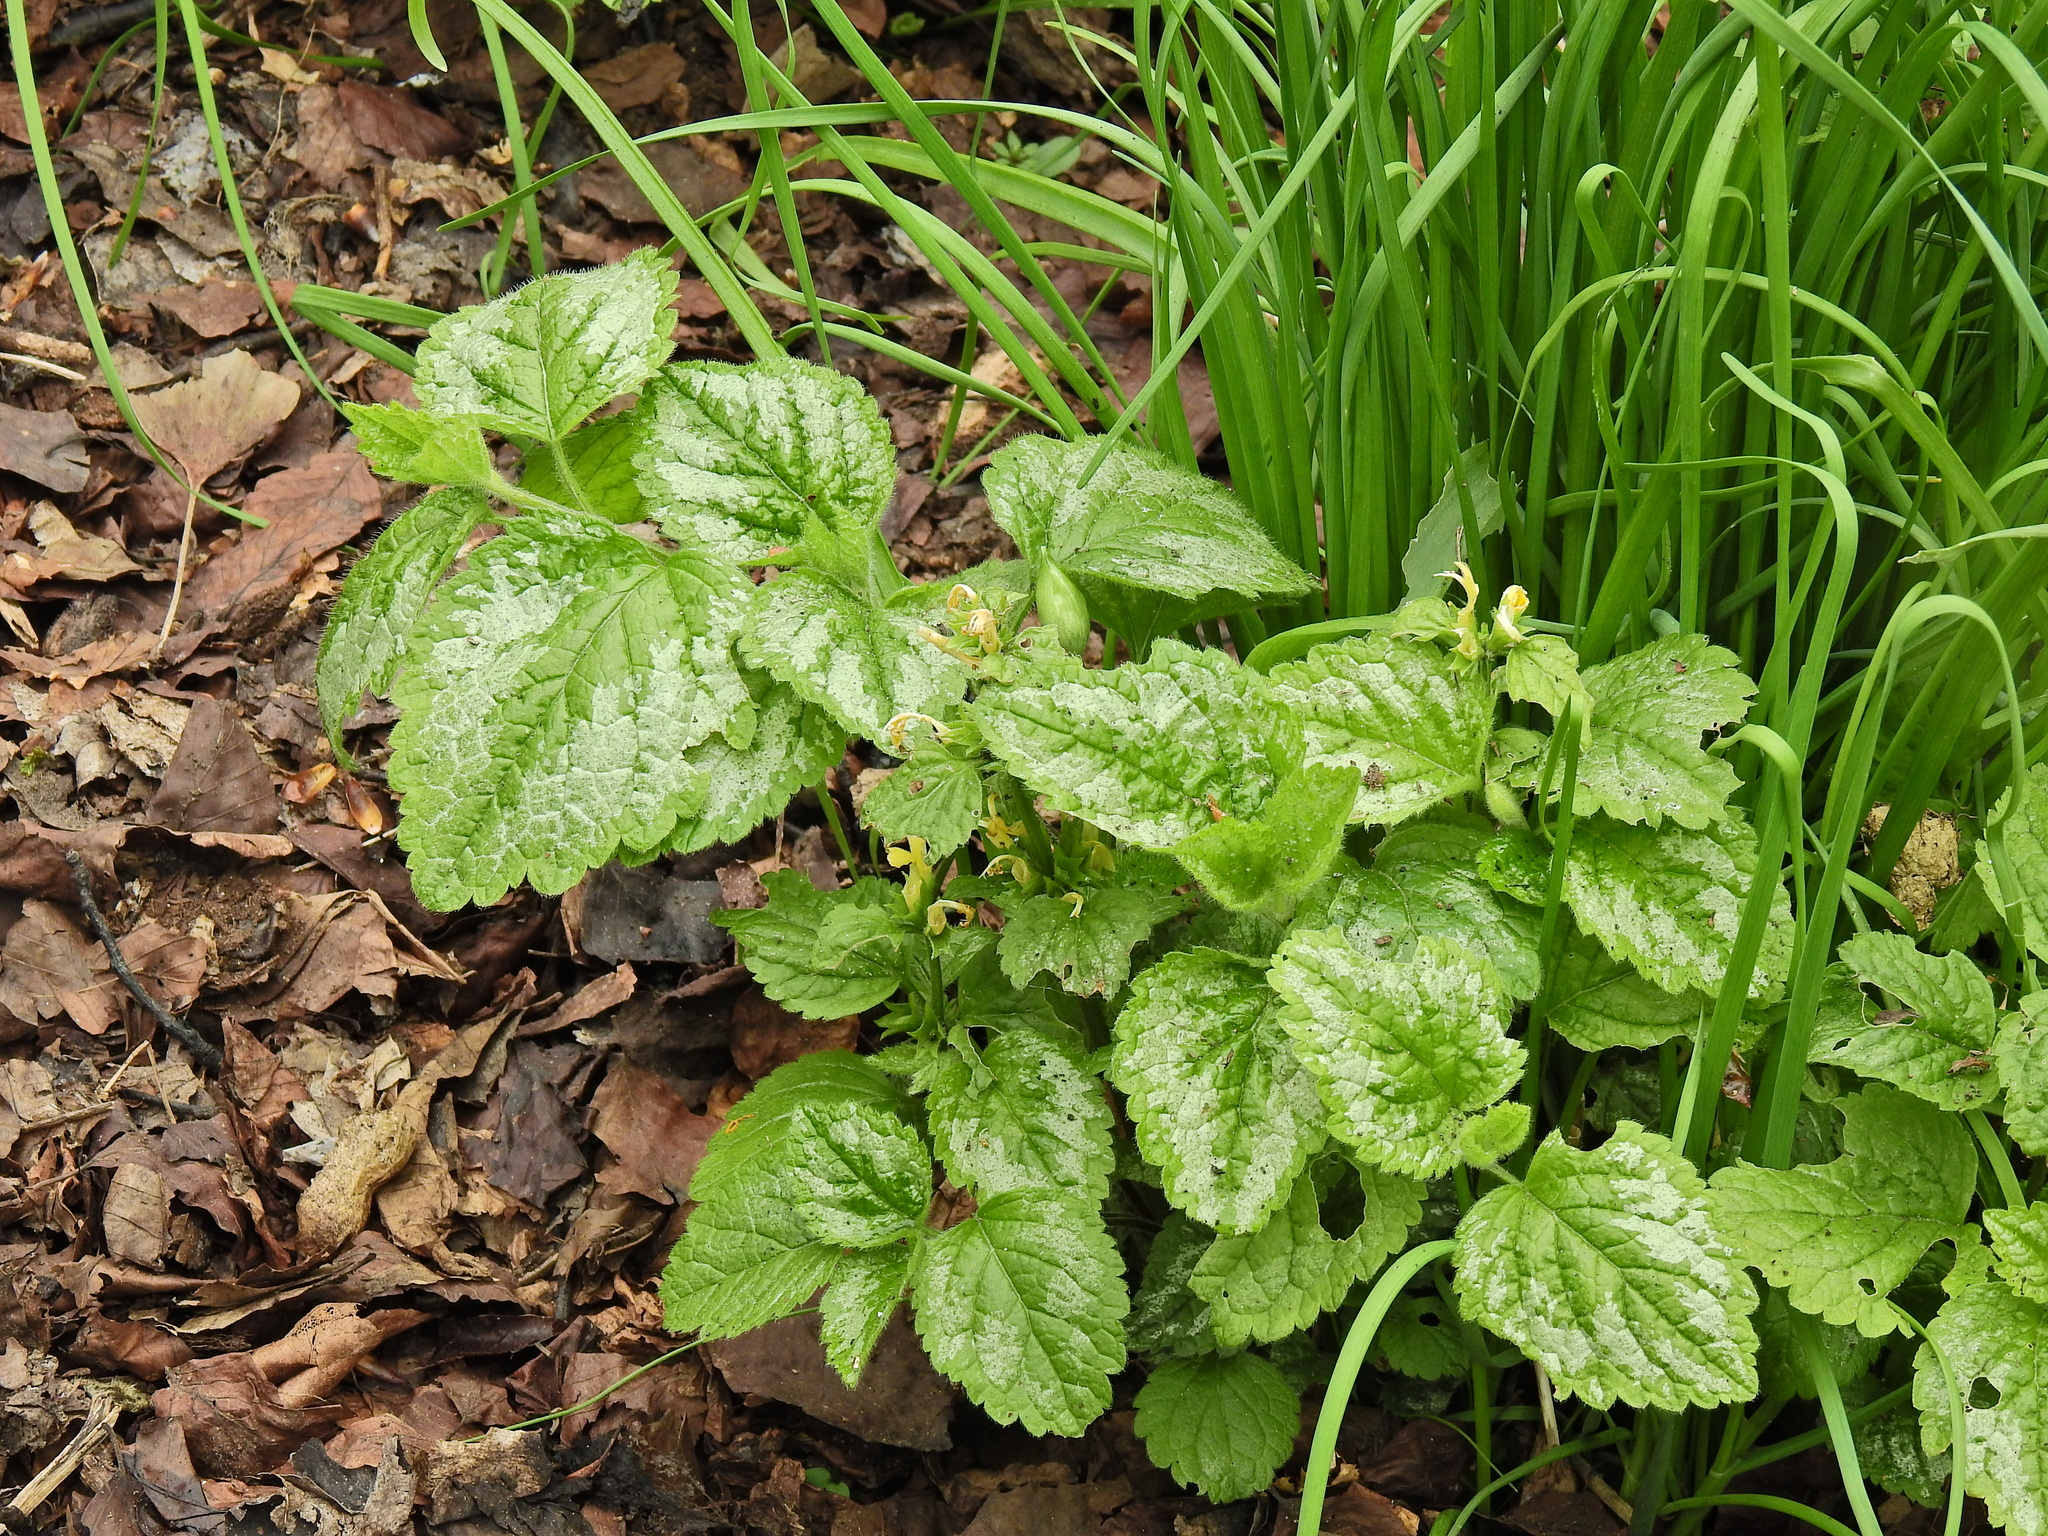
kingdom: Plantae
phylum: Tracheophyta
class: Magnoliopsida
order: Lamiales
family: Lamiaceae
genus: Lamium
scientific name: Lamium galeobdolon
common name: Yellow archangel
